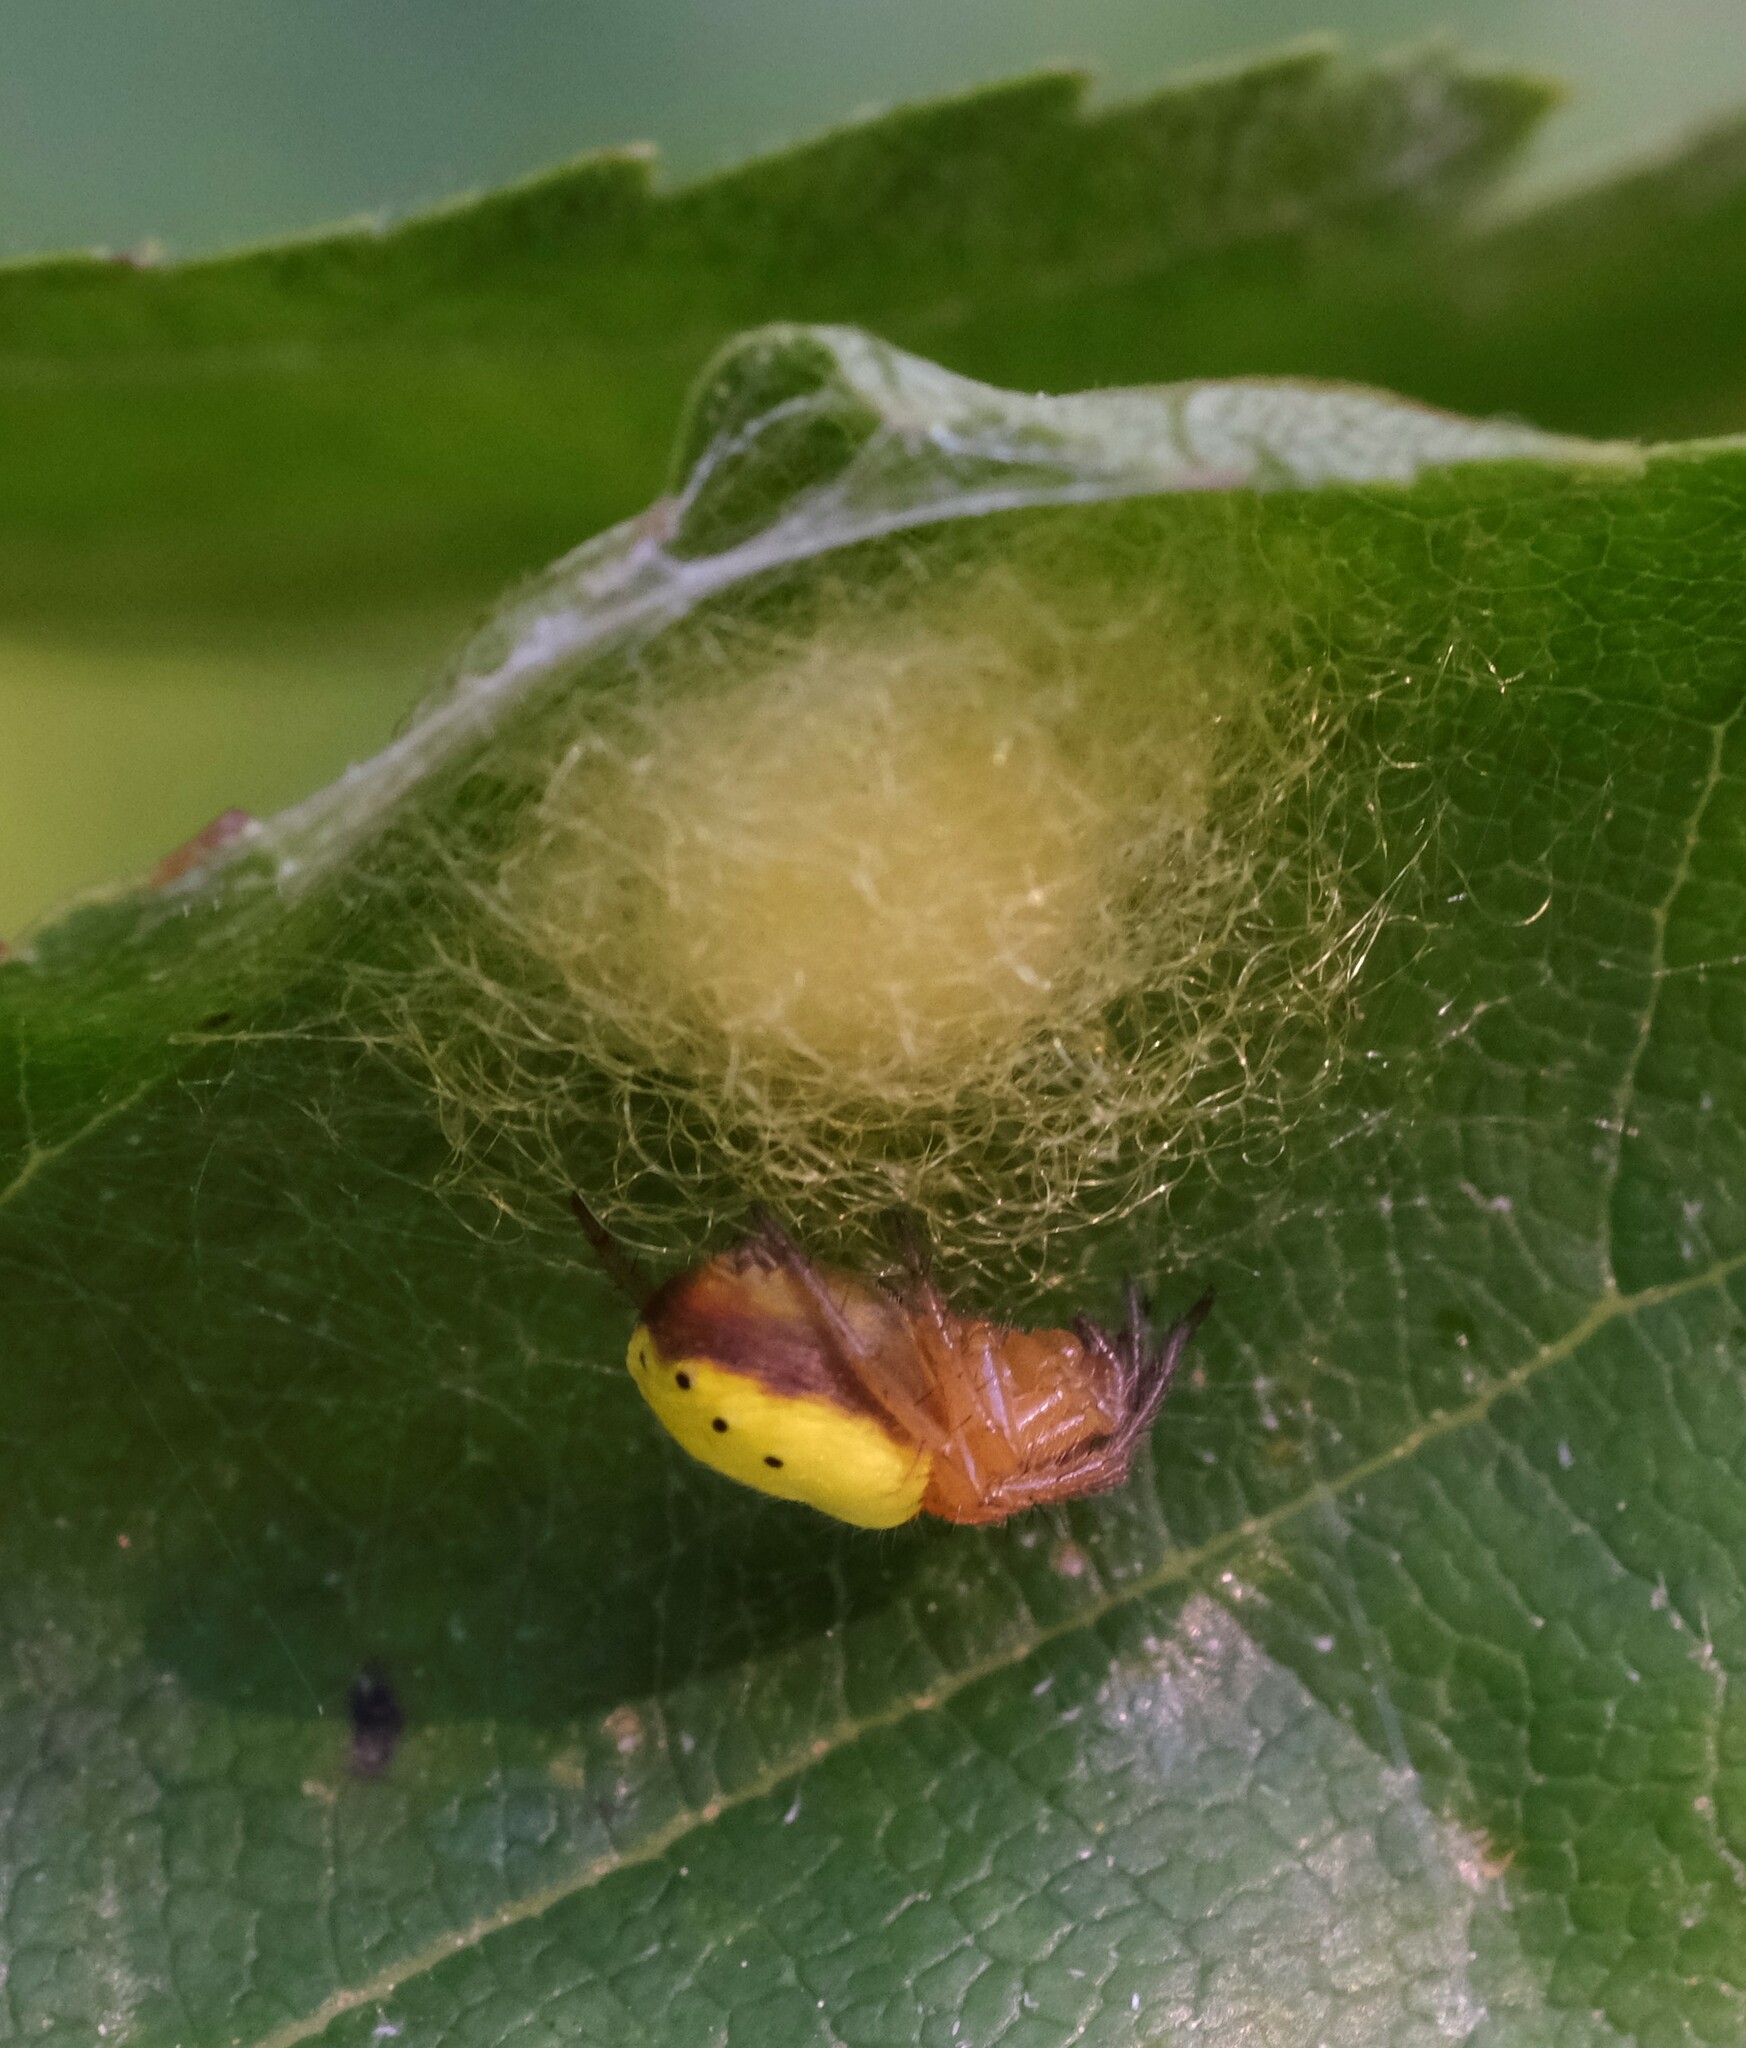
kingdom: Animalia
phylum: Arthropoda
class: Arachnida
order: Araneae
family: Araneidae
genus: Araniella
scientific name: Araniella displicata
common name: Sixspotted orb weaver
